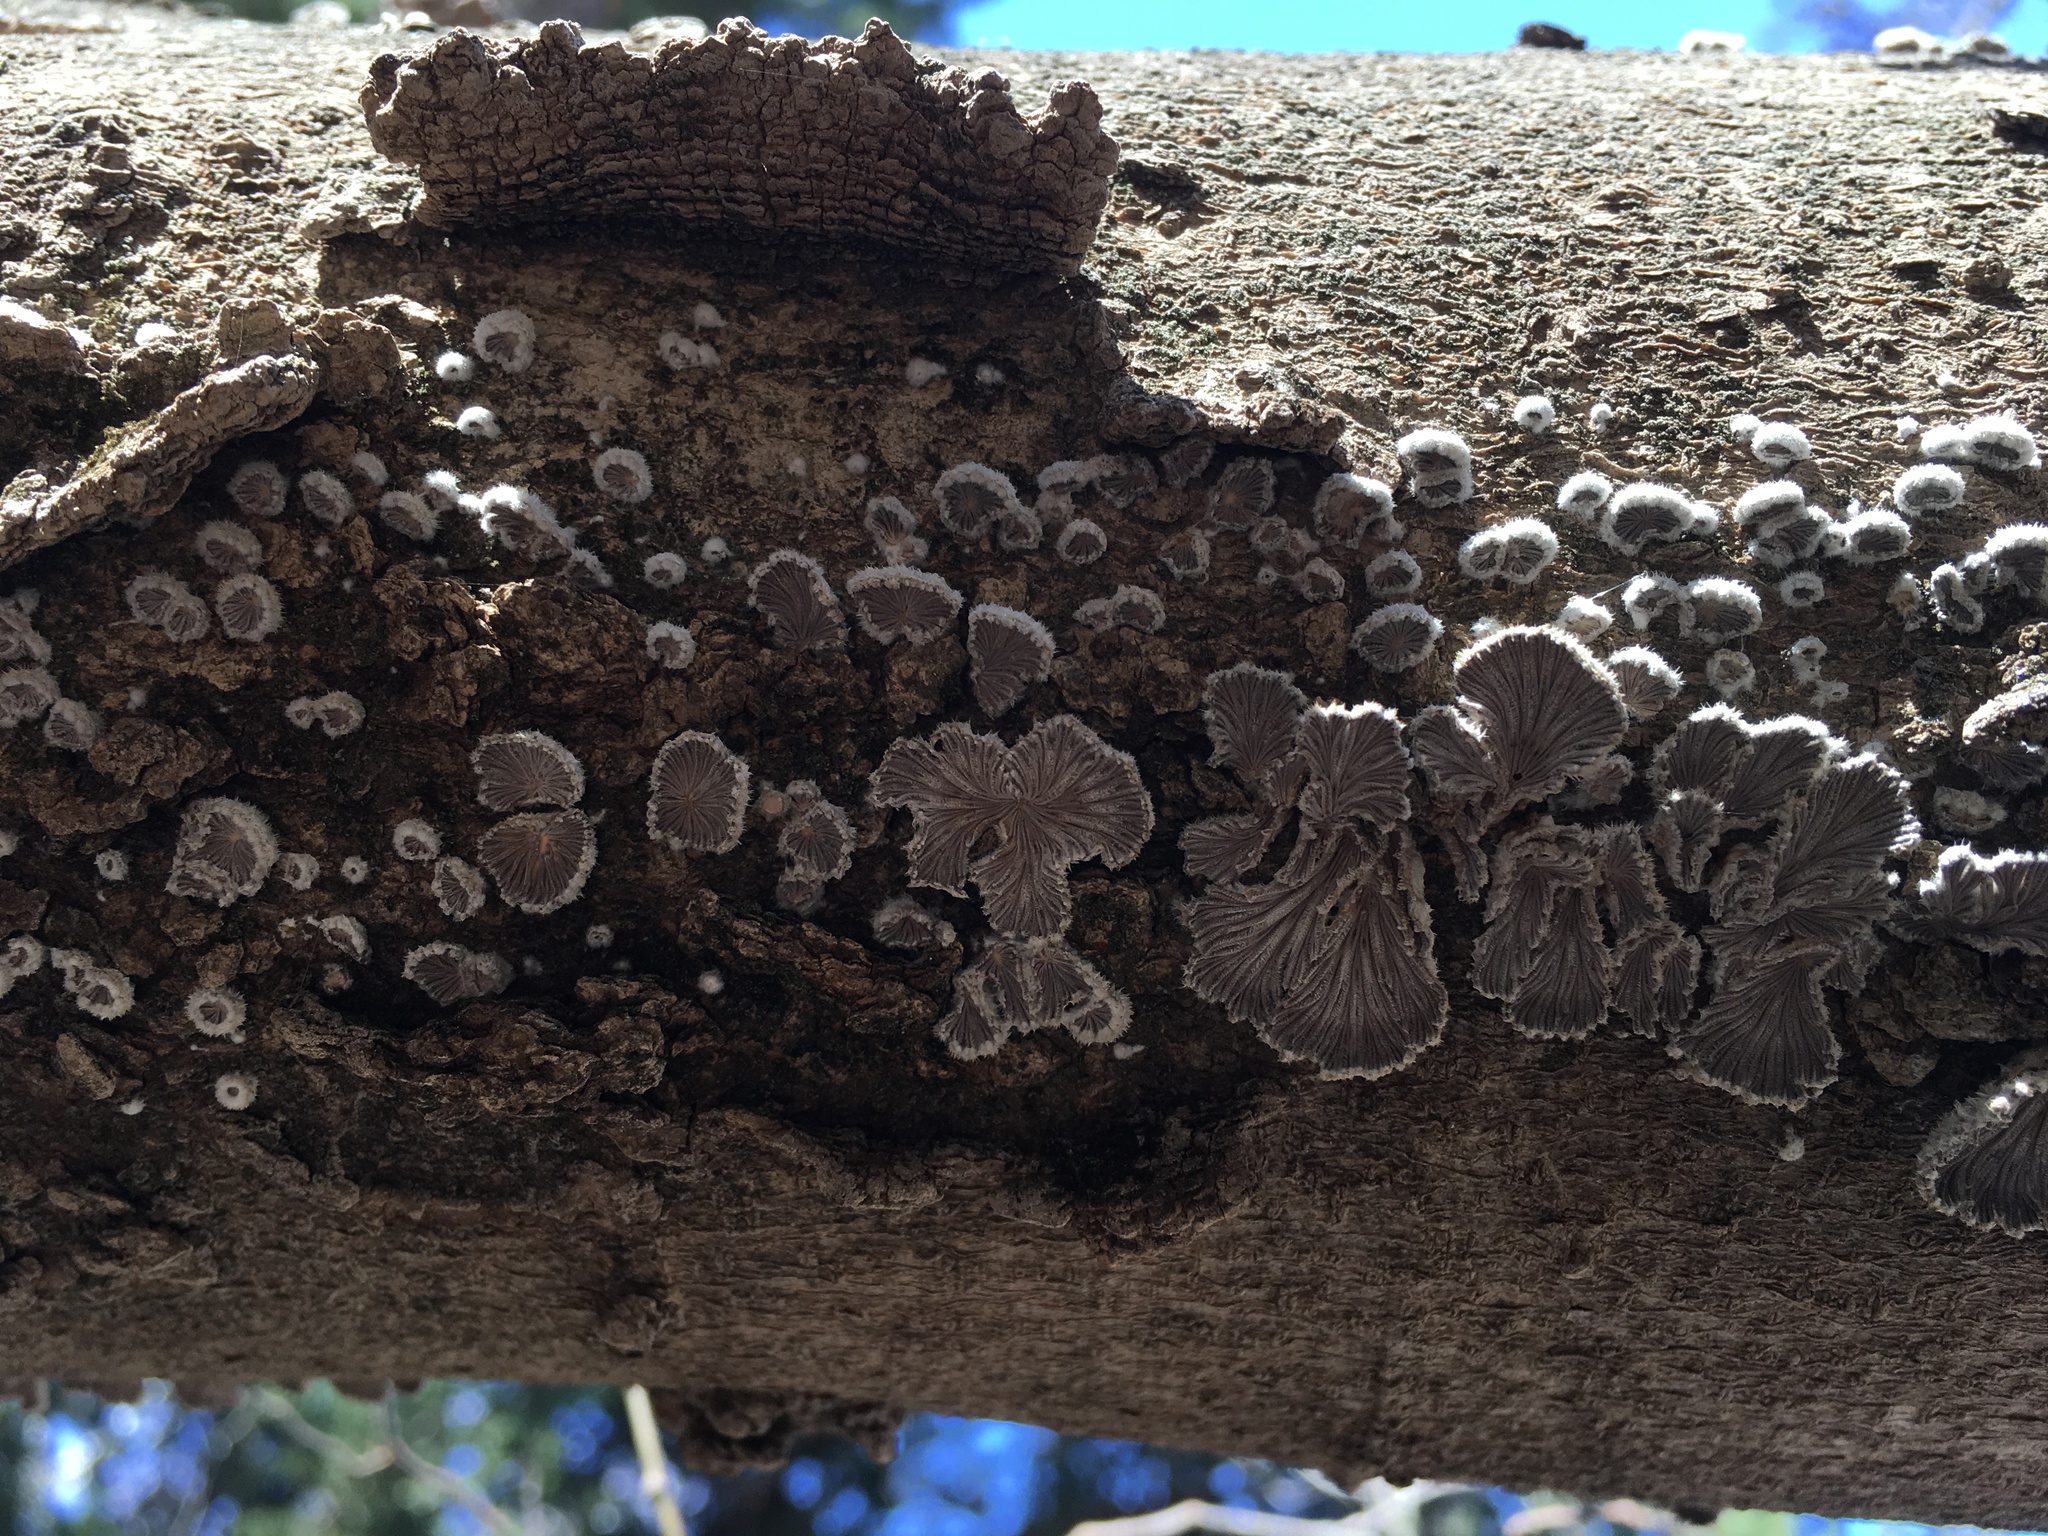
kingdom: Fungi
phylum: Basidiomycota
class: Agaricomycetes
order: Agaricales
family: Schizophyllaceae
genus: Schizophyllum
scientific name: Schizophyllum commune
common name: Common porecrust
